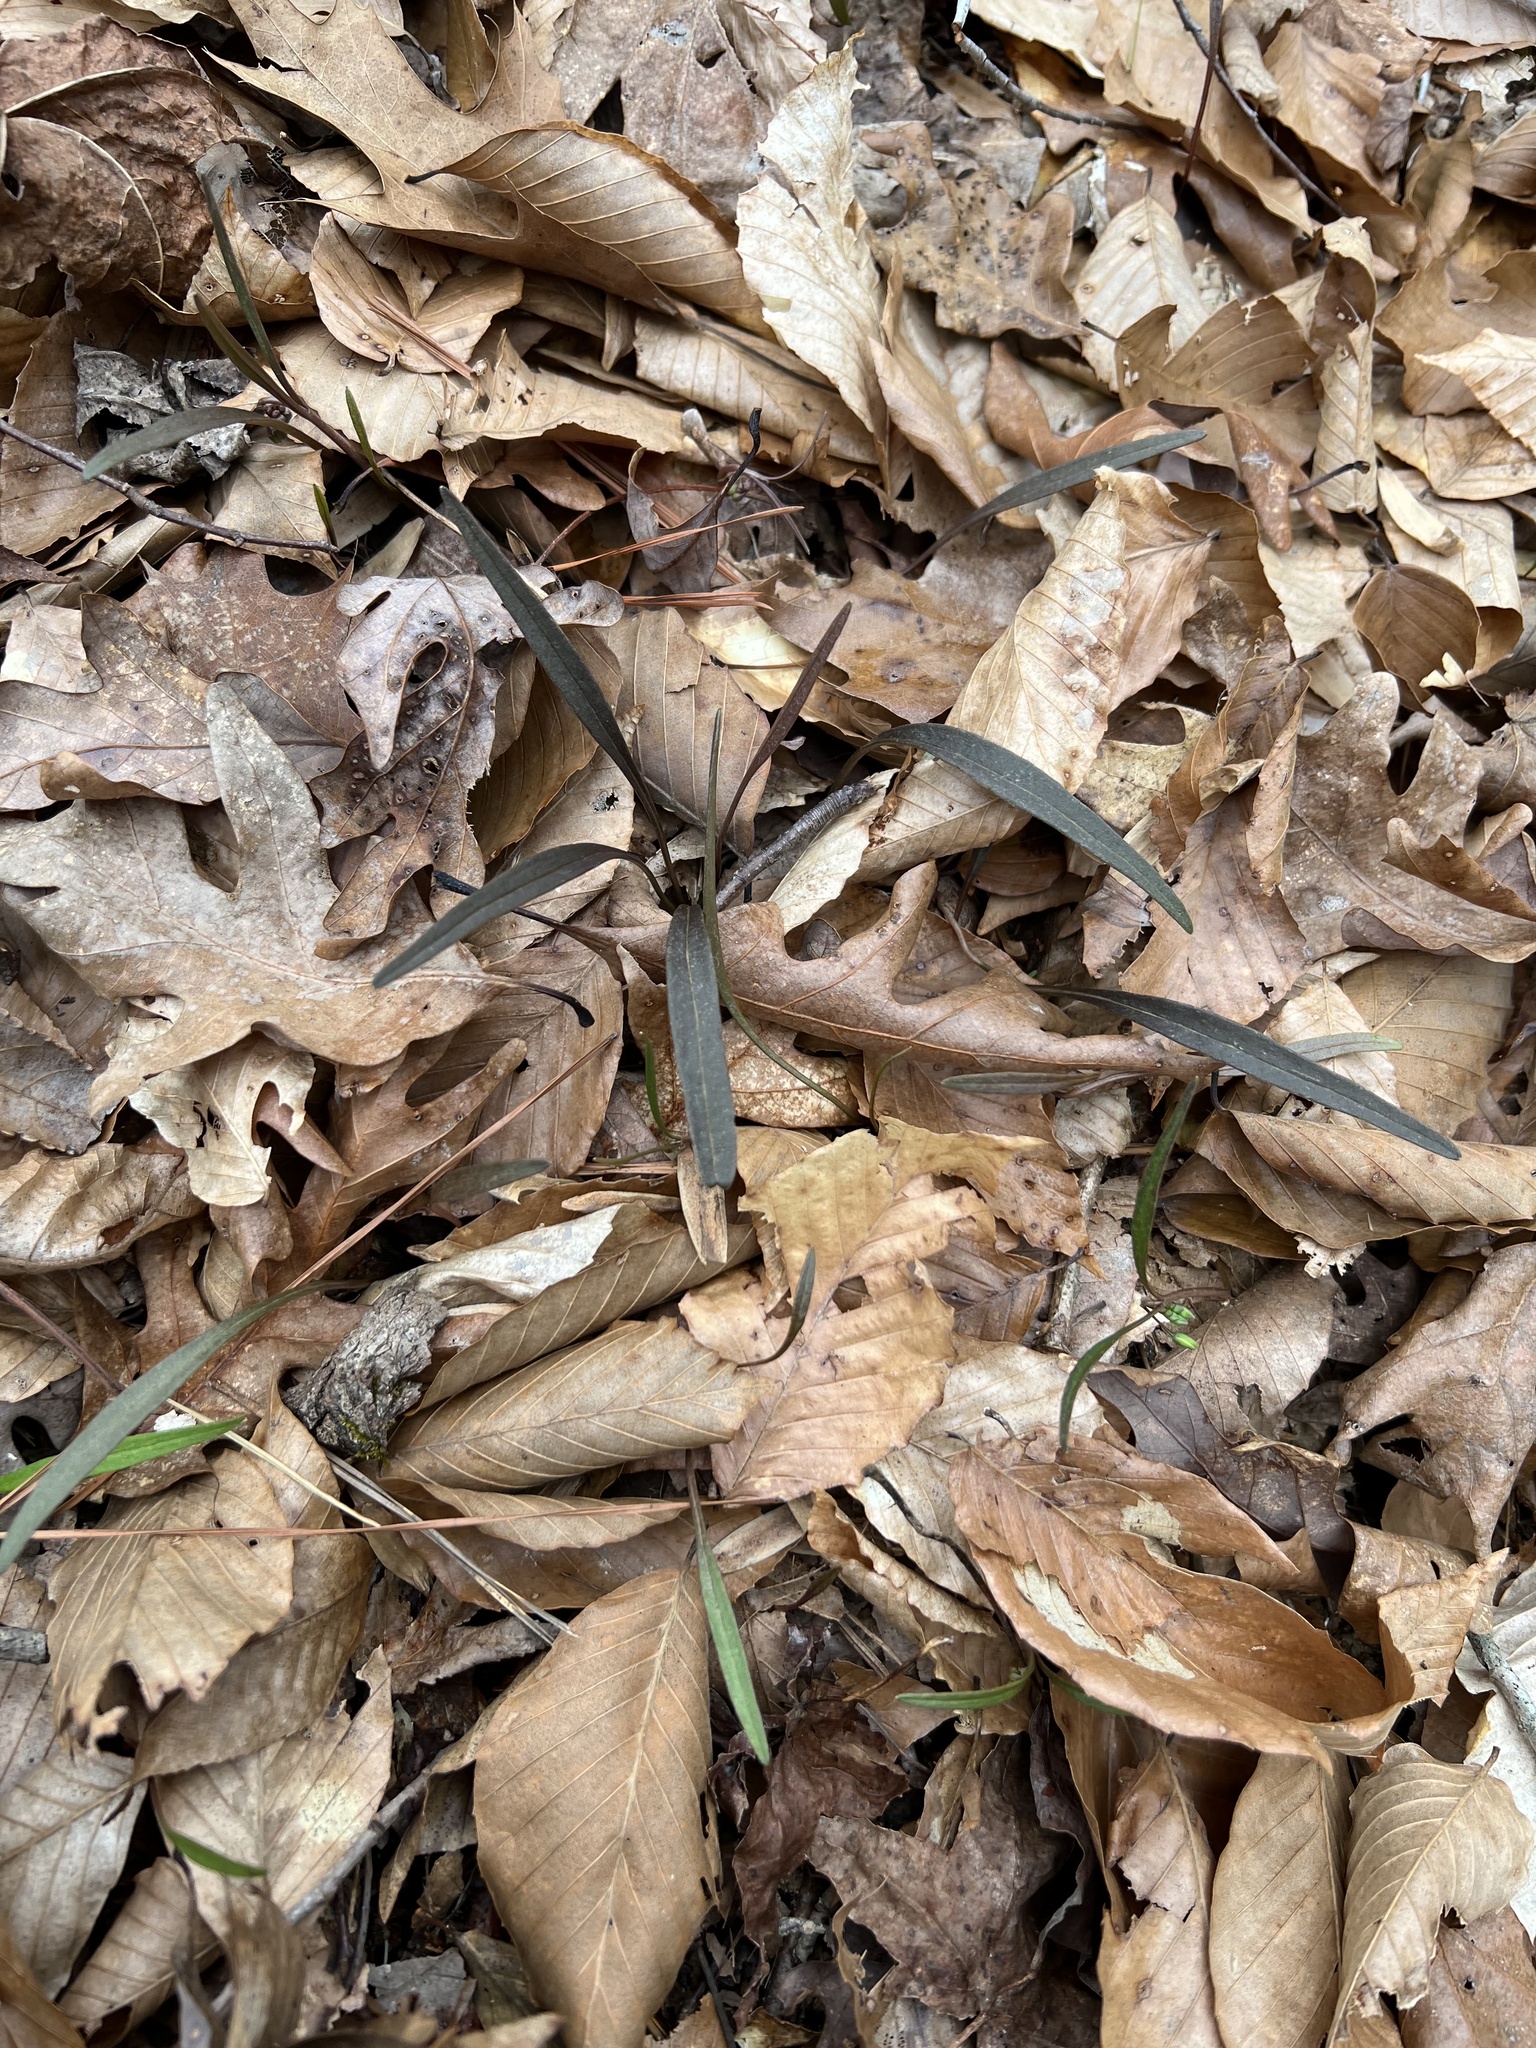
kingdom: Plantae
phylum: Tracheophyta
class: Magnoliopsida
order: Caryophyllales
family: Montiaceae
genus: Claytonia
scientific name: Claytonia virginica
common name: Virginia springbeauty
